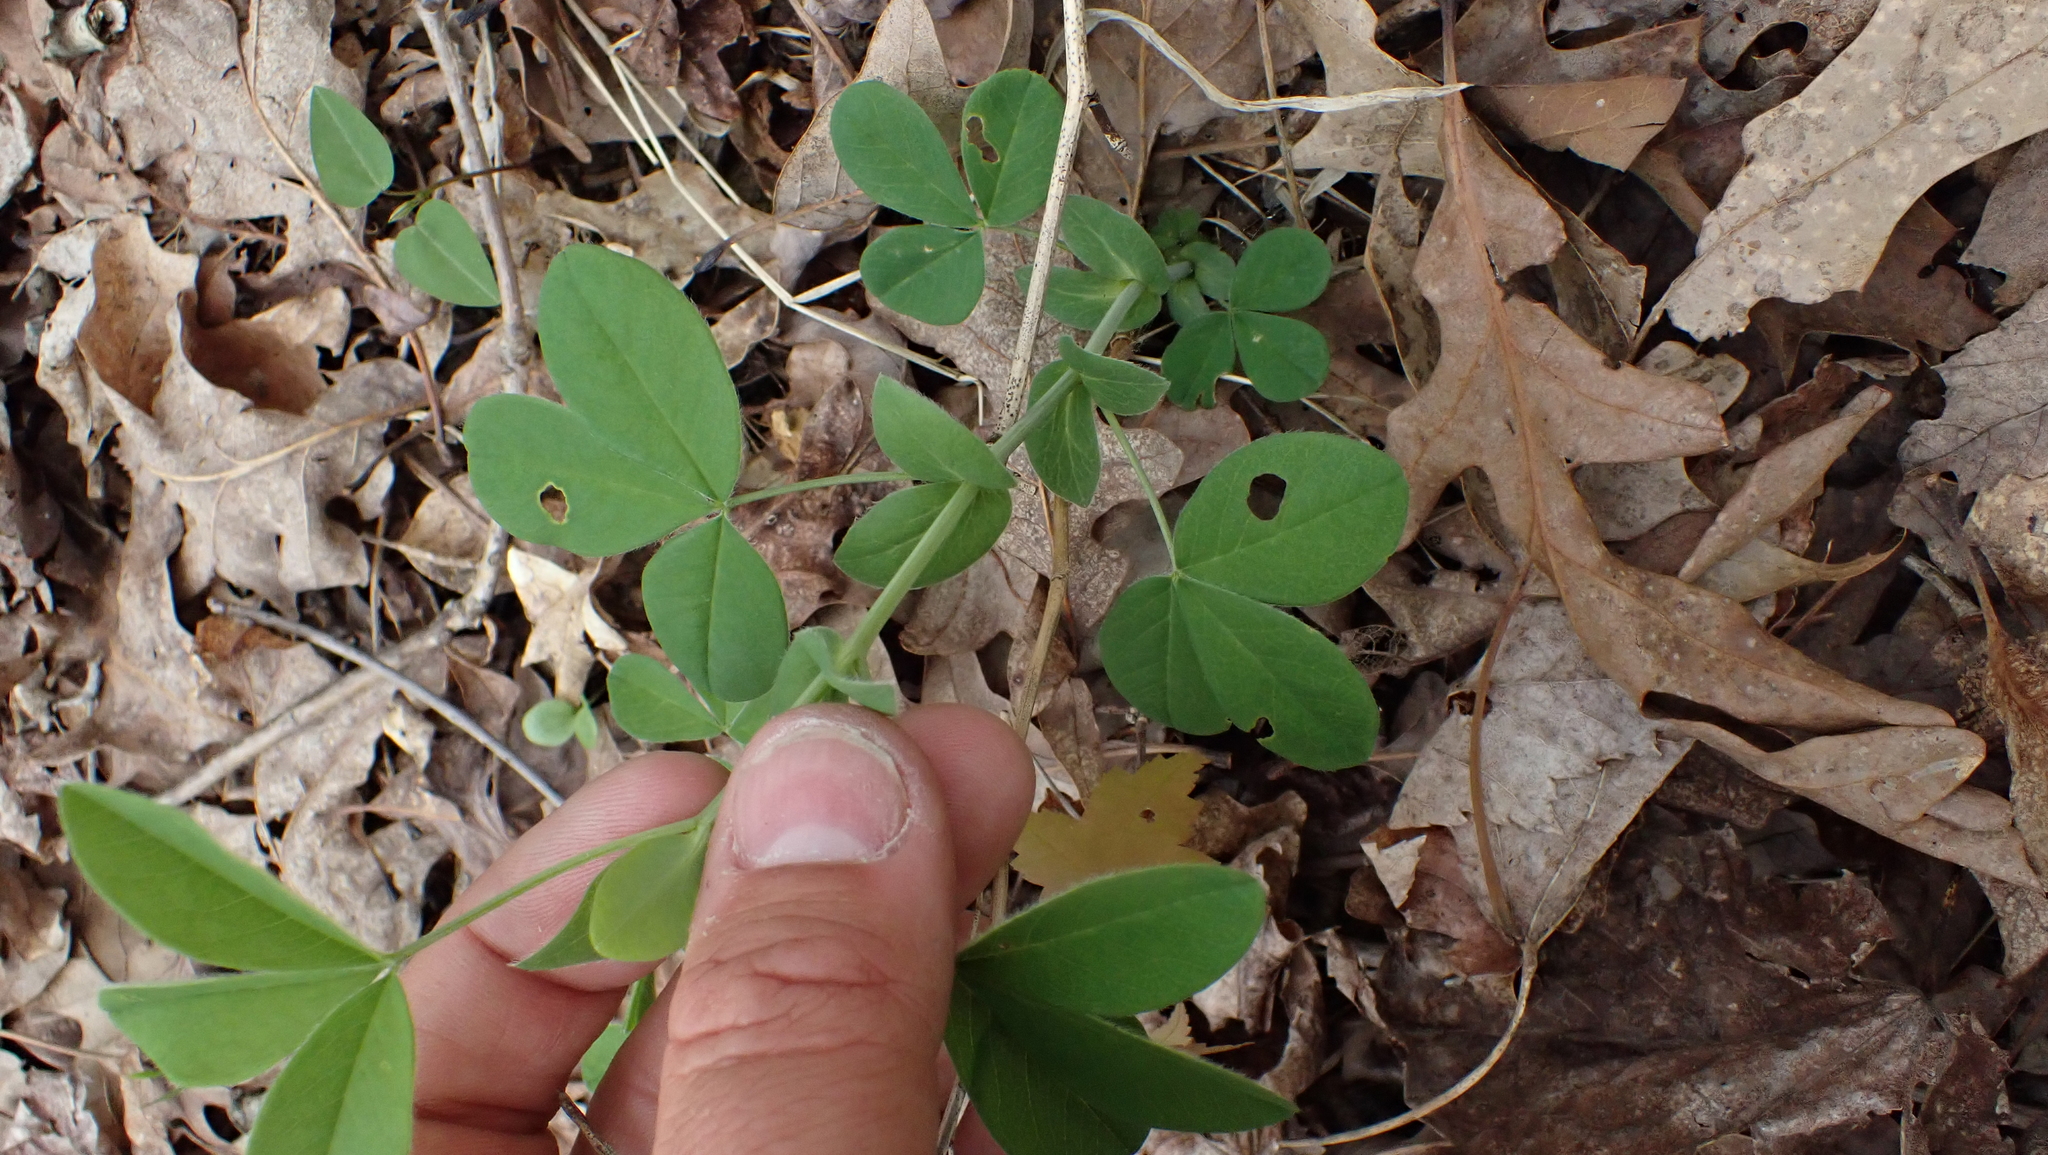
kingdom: Plantae
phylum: Tracheophyta
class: Magnoliopsida
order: Fabales
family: Fabaceae
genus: Thermopsis
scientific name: Thermopsis villosa
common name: Carolina-lupin
